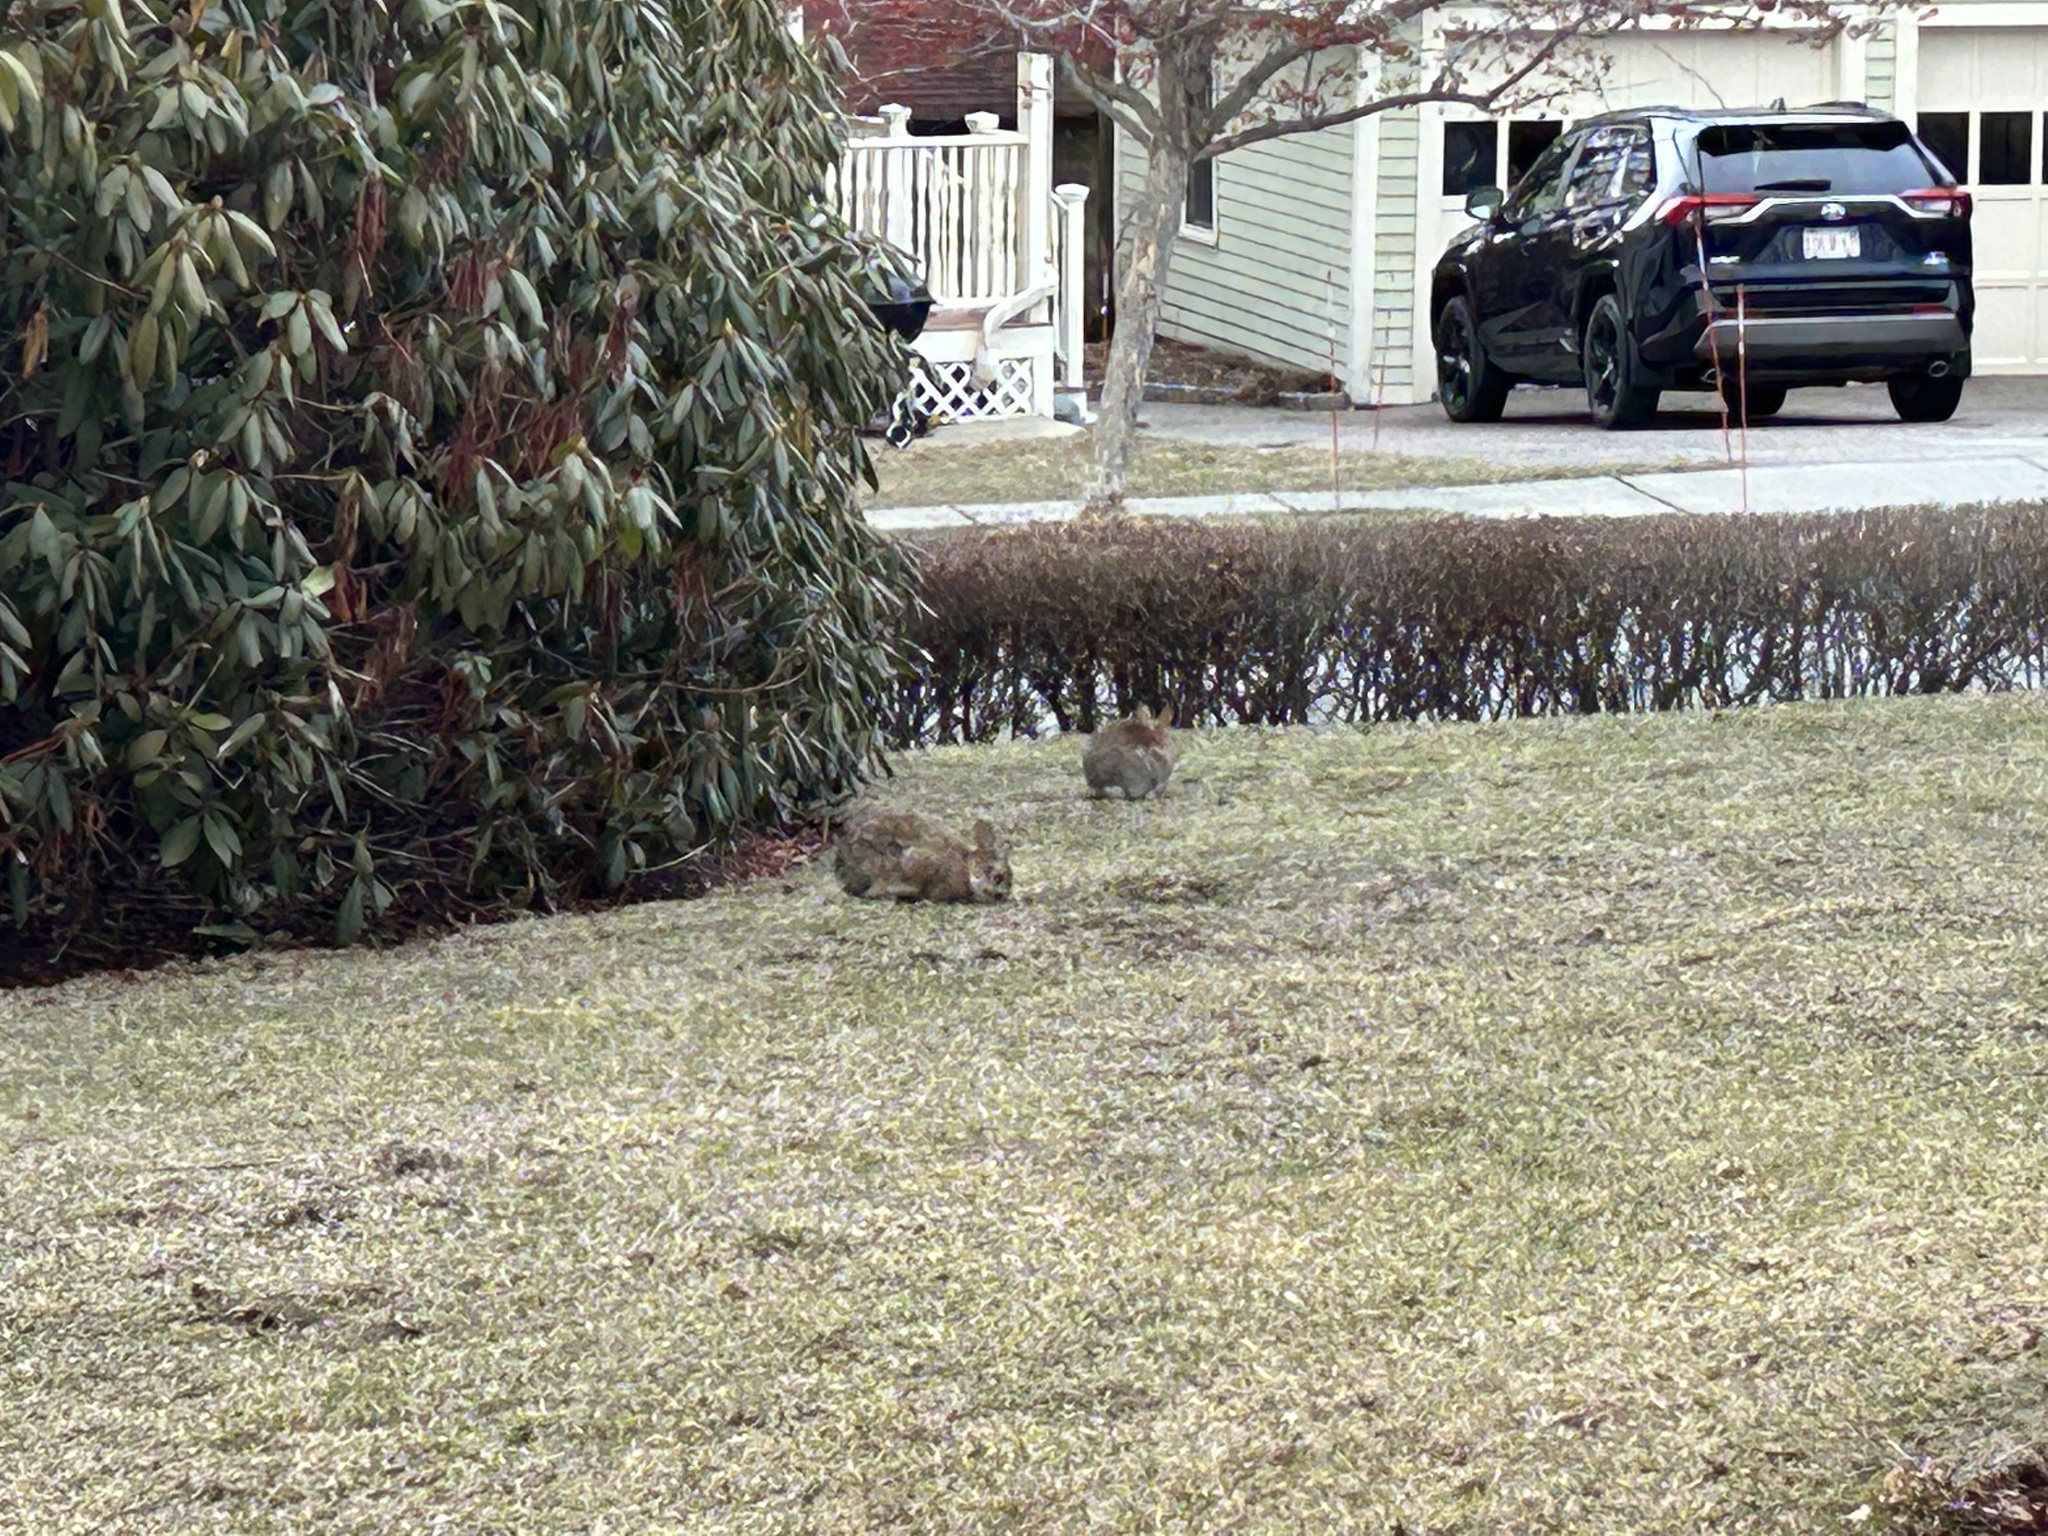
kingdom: Animalia
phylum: Chordata
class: Mammalia
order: Lagomorpha
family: Leporidae
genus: Sylvilagus
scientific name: Sylvilagus floridanus
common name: Eastern cottontail
